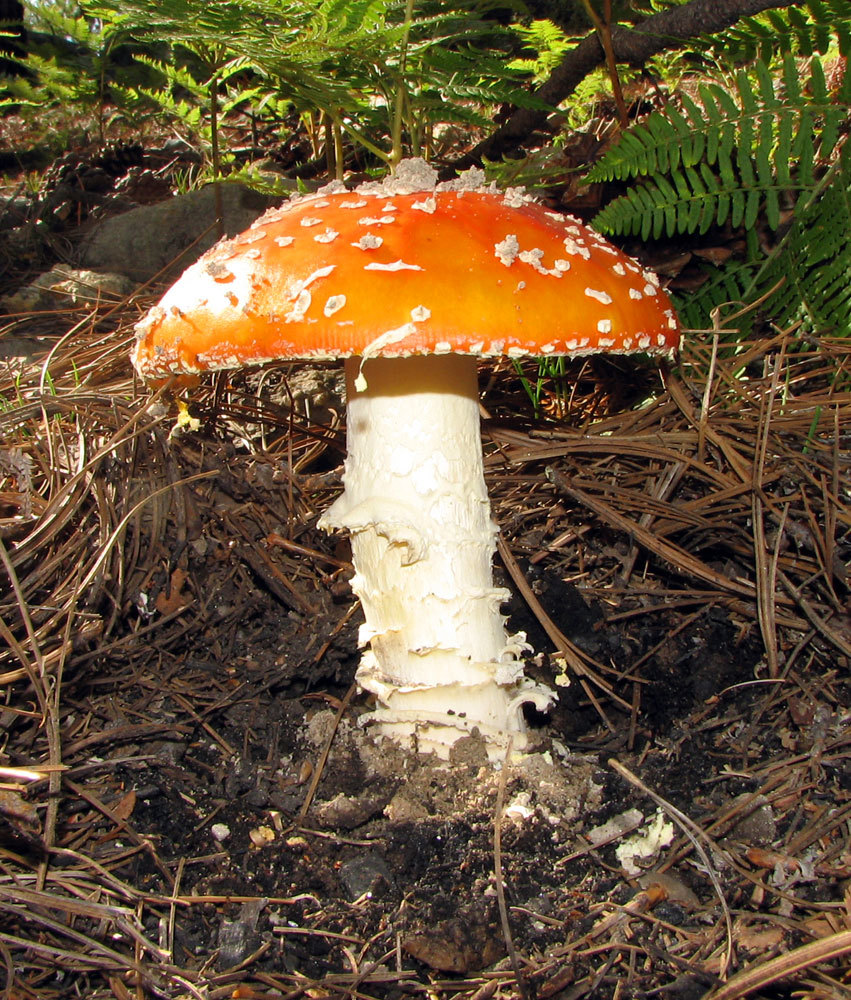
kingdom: Fungi
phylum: Basidiomycota
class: Agaricomycetes
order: Agaricales
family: Amanitaceae
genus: Amanita
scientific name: Amanita muscaria
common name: Fly agaric
